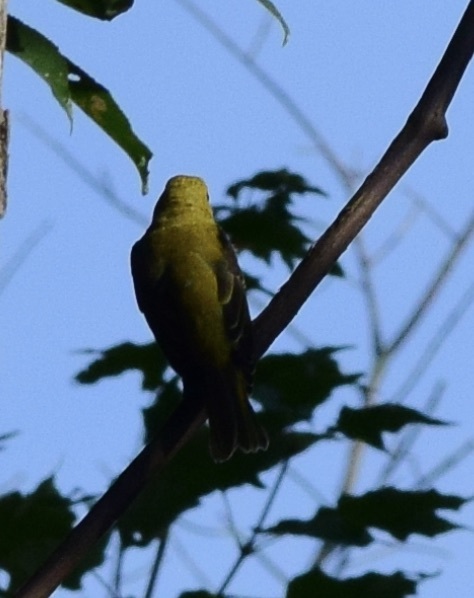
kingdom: Animalia
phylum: Chordata
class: Aves
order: Passeriformes
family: Cardinalidae
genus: Piranga
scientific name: Piranga olivacea
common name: Scarlet tanager
